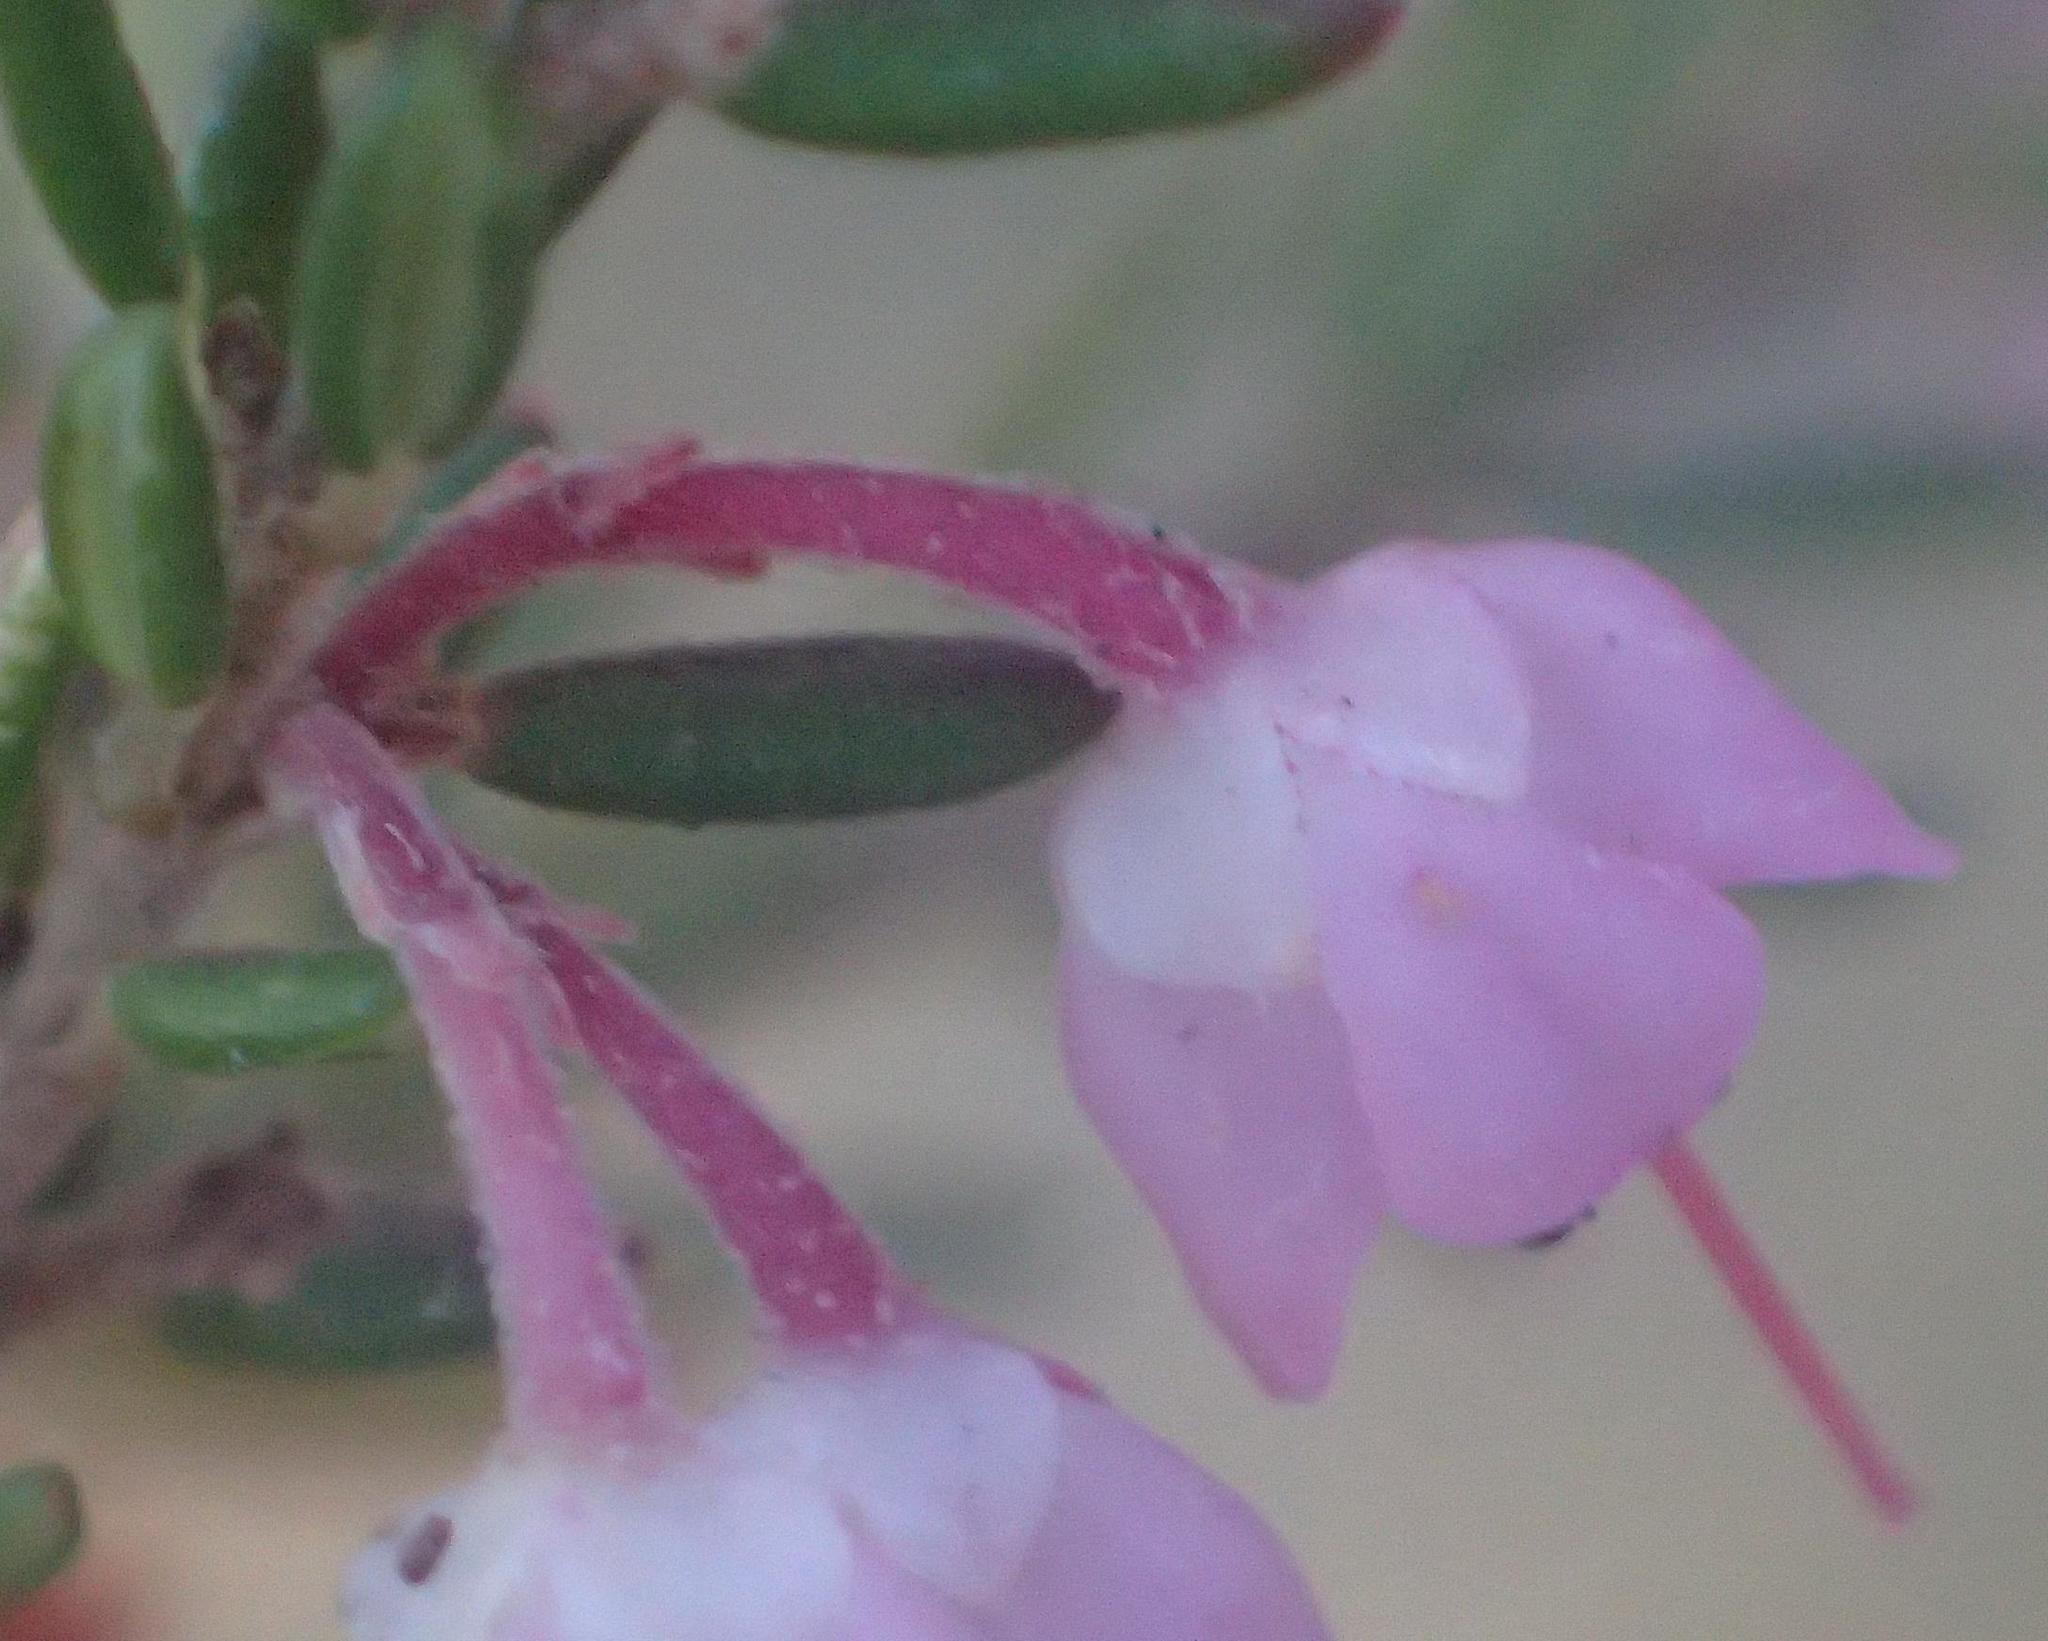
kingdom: Plantae
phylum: Tracheophyta
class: Magnoliopsida
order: Ericales
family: Ericaceae
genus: Erica
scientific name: Erica canaliculata
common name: Hairy grey heather
